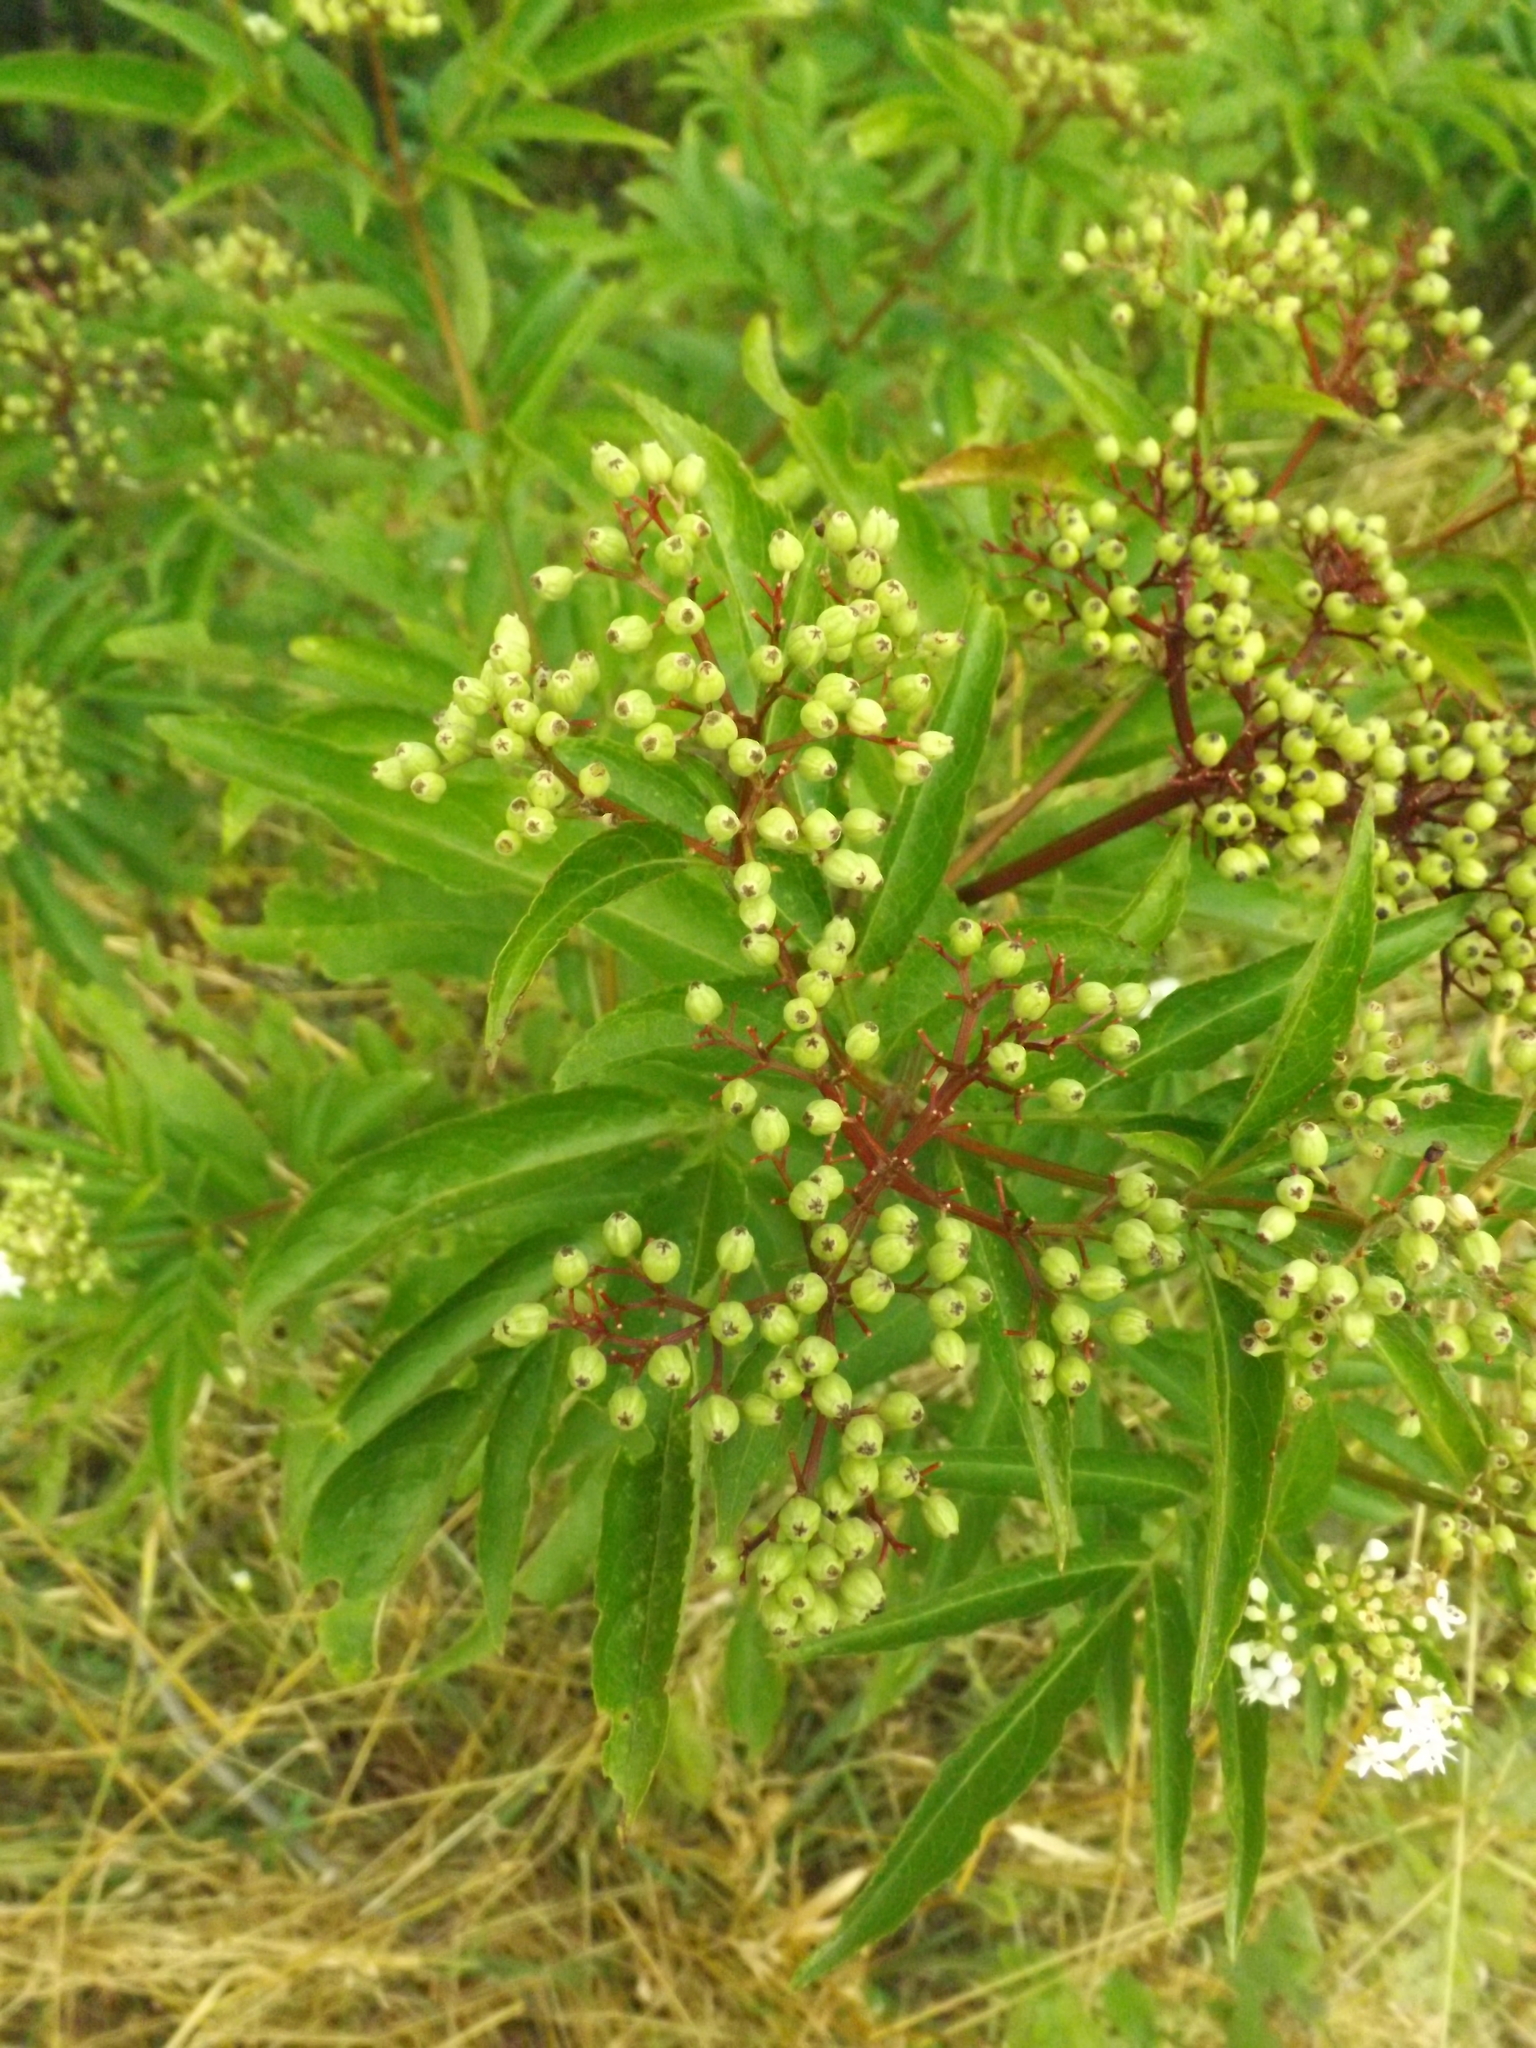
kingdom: Plantae
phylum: Tracheophyta
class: Magnoliopsida
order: Dipsacales
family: Viburnaceae
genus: Sambucus
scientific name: Sambucus ebulus
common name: Dwarf elder
